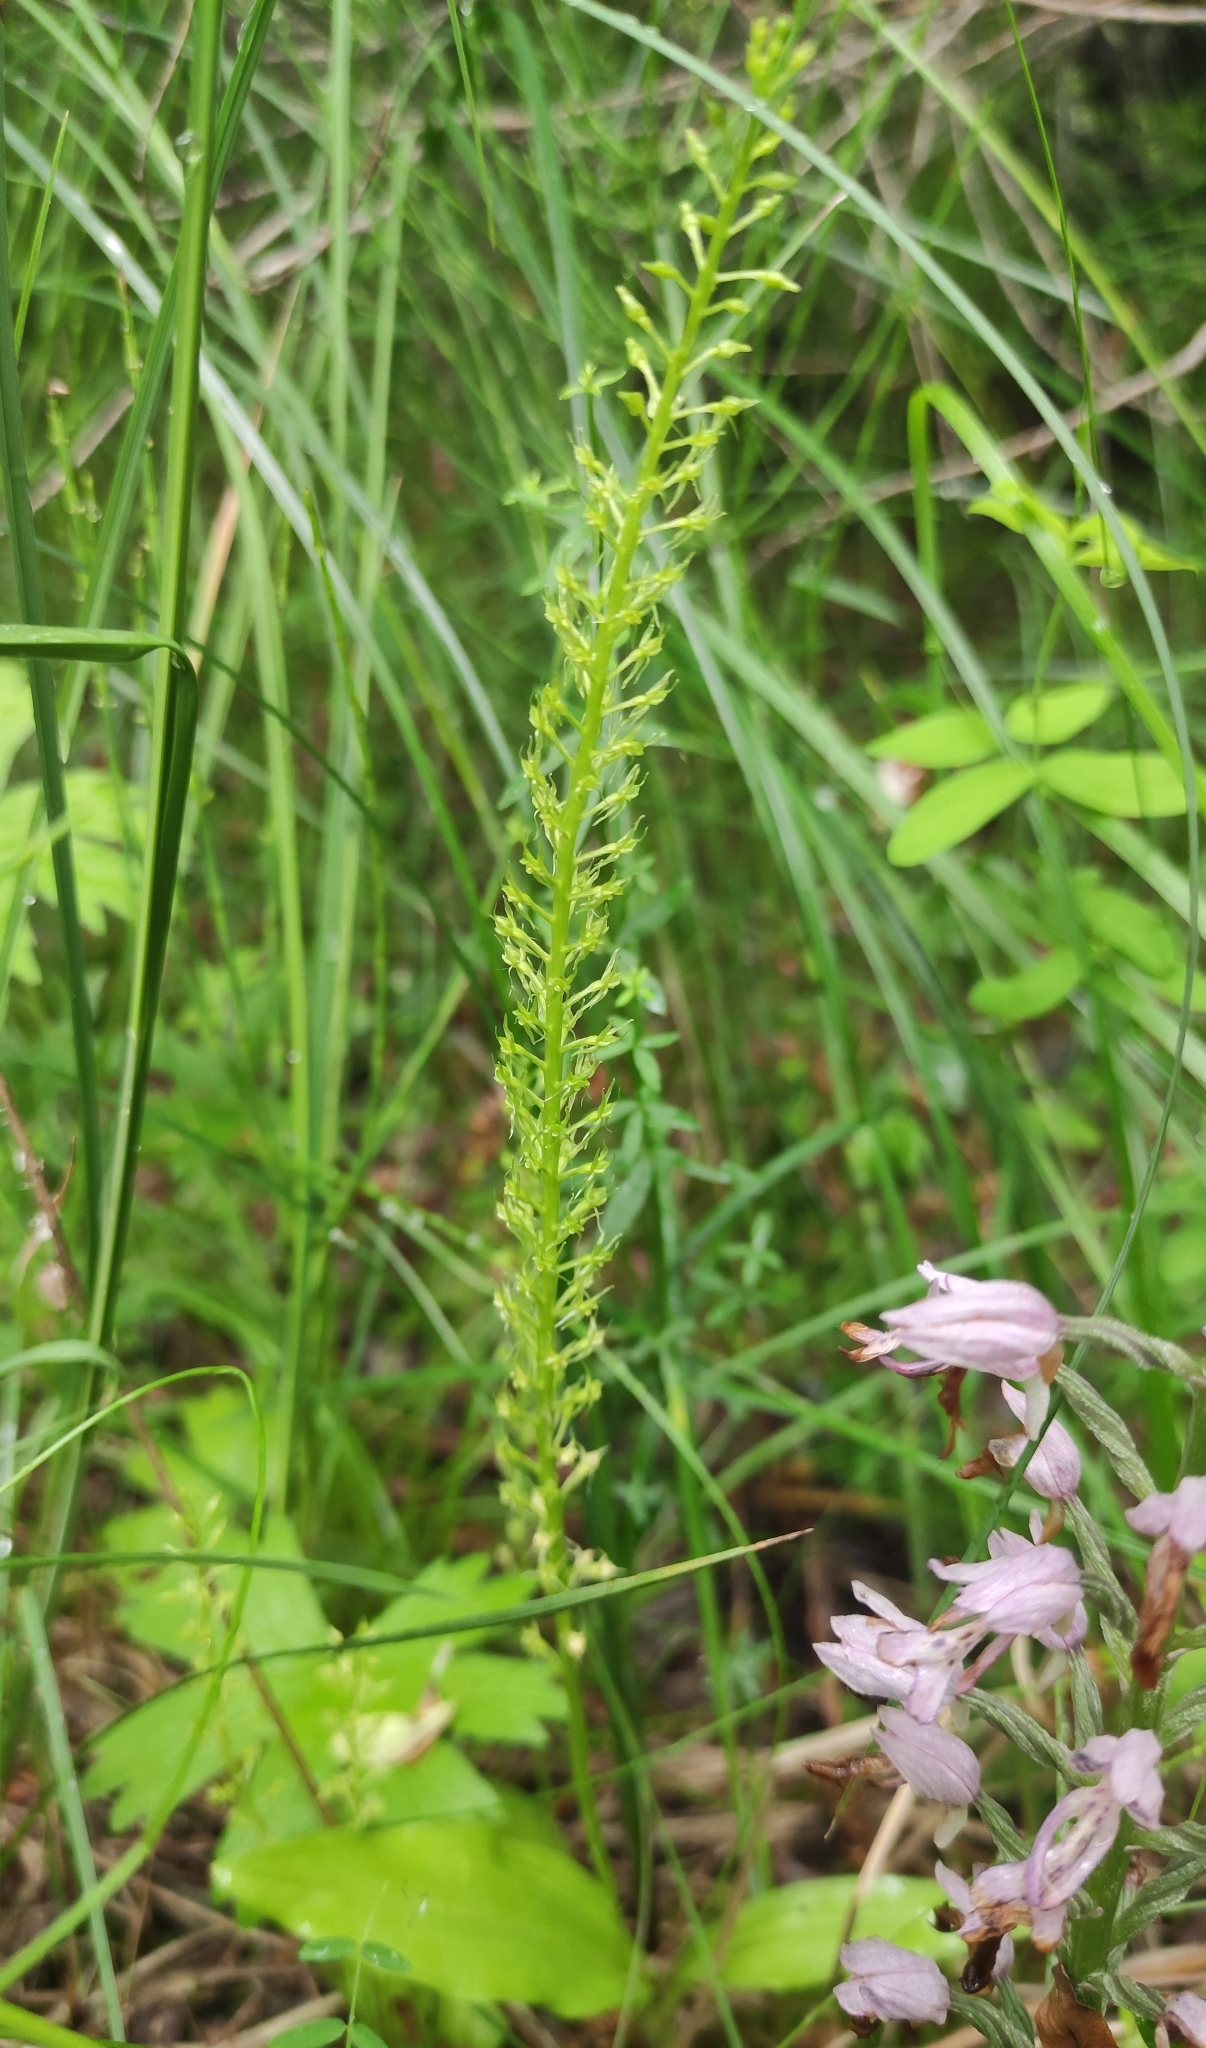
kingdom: Plantae
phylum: Tracheophyta
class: Liliopsida
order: Asparagales
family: Orchidaceae
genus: Malaxis
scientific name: Malaxis monophyllos
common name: White adder's-mouth
